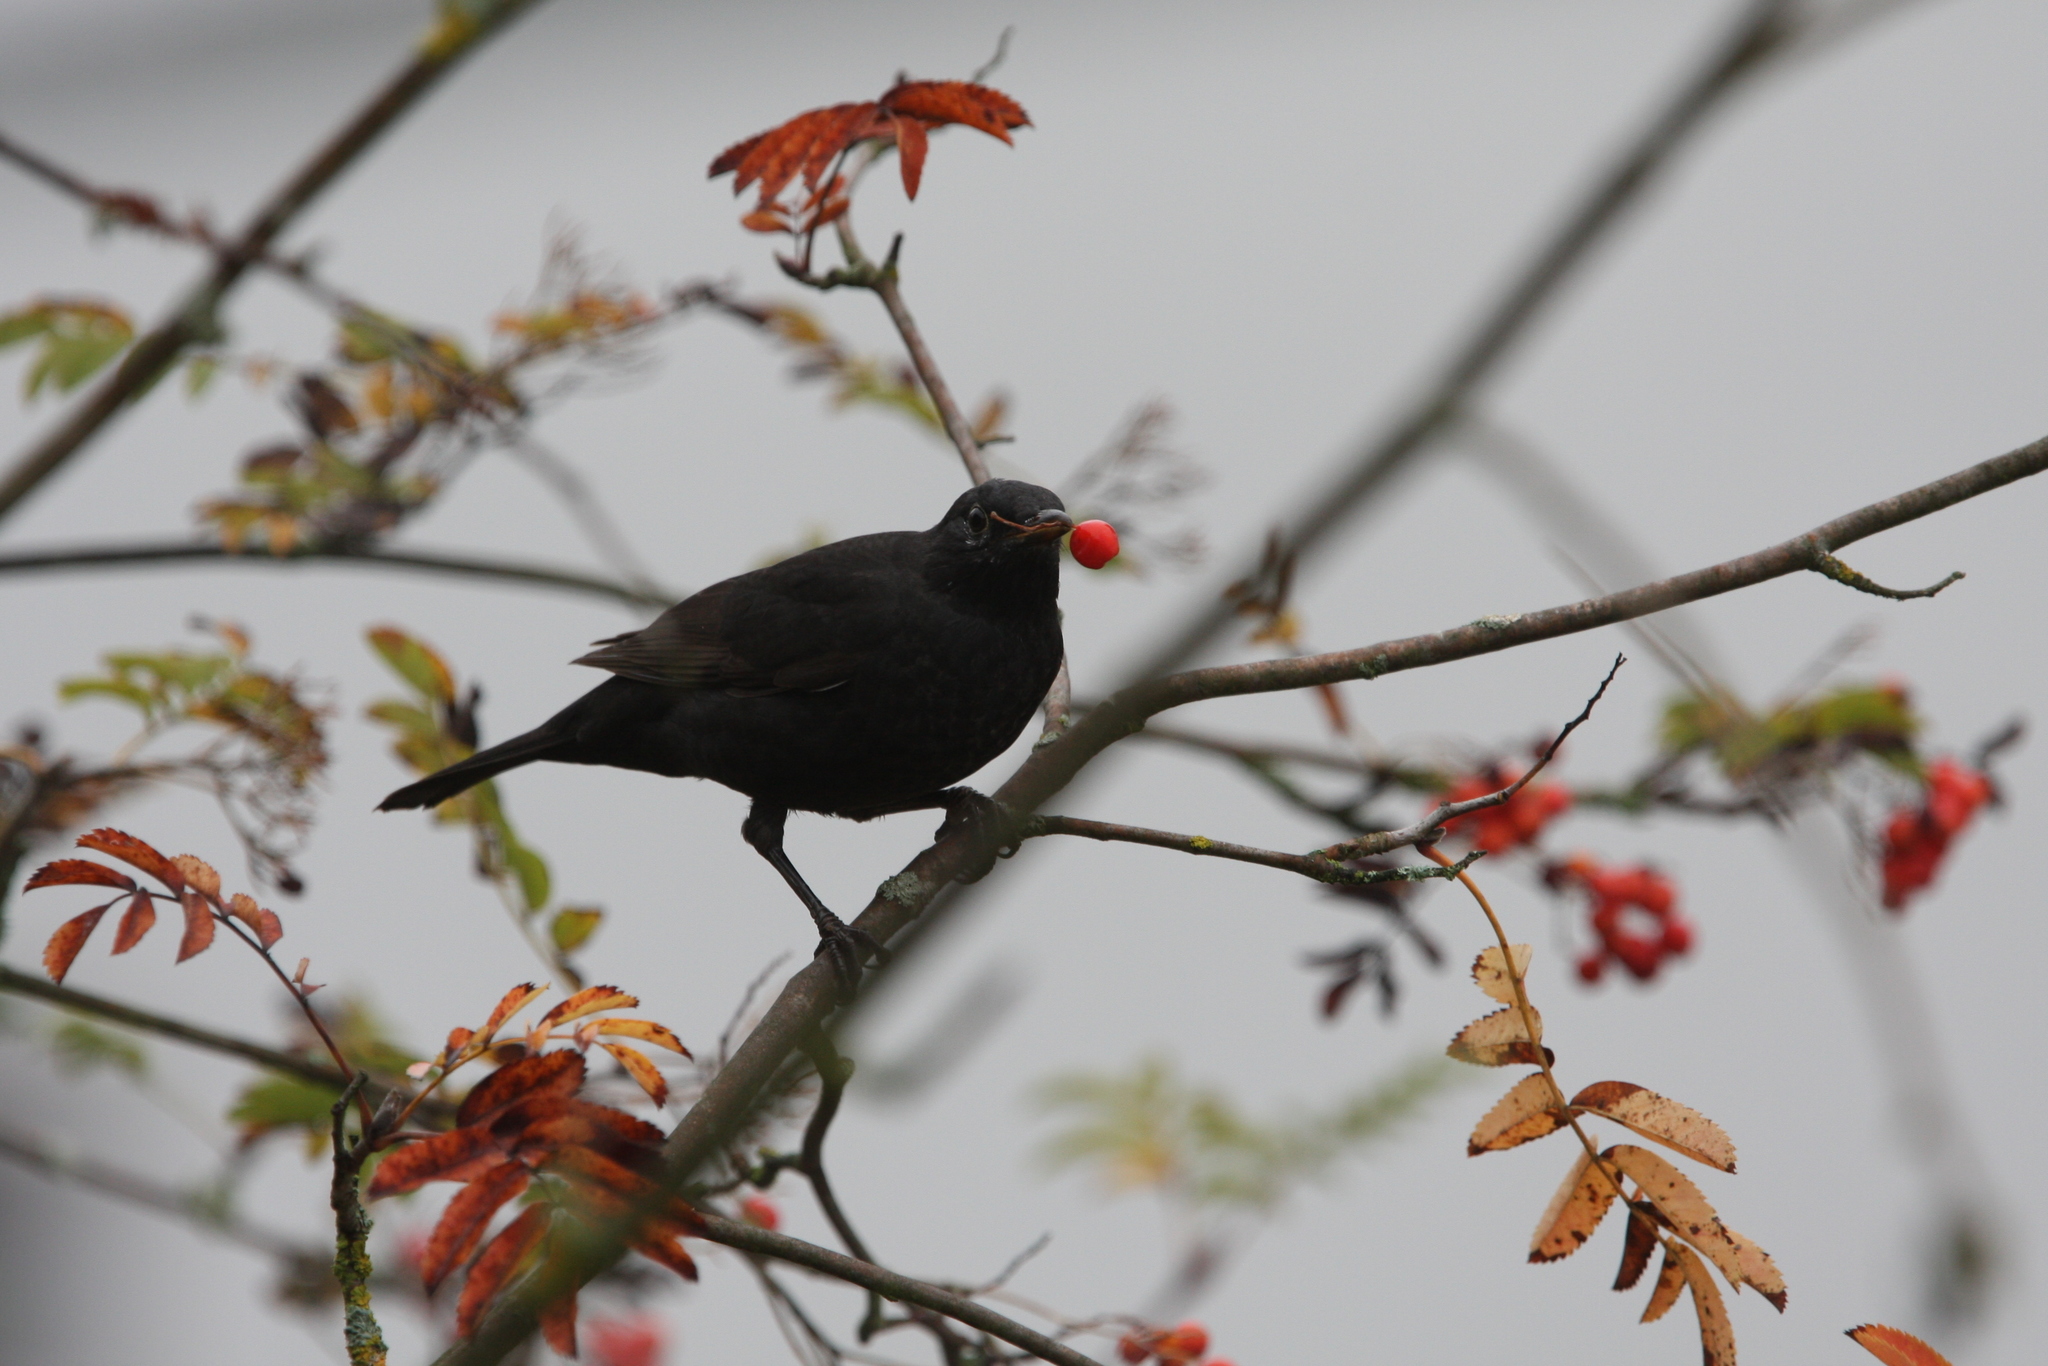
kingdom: Animalia
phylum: Chordata
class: Aves
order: Passeriformes
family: Turdidae
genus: Turdus
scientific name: Turdus merula
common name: Common blackbird
